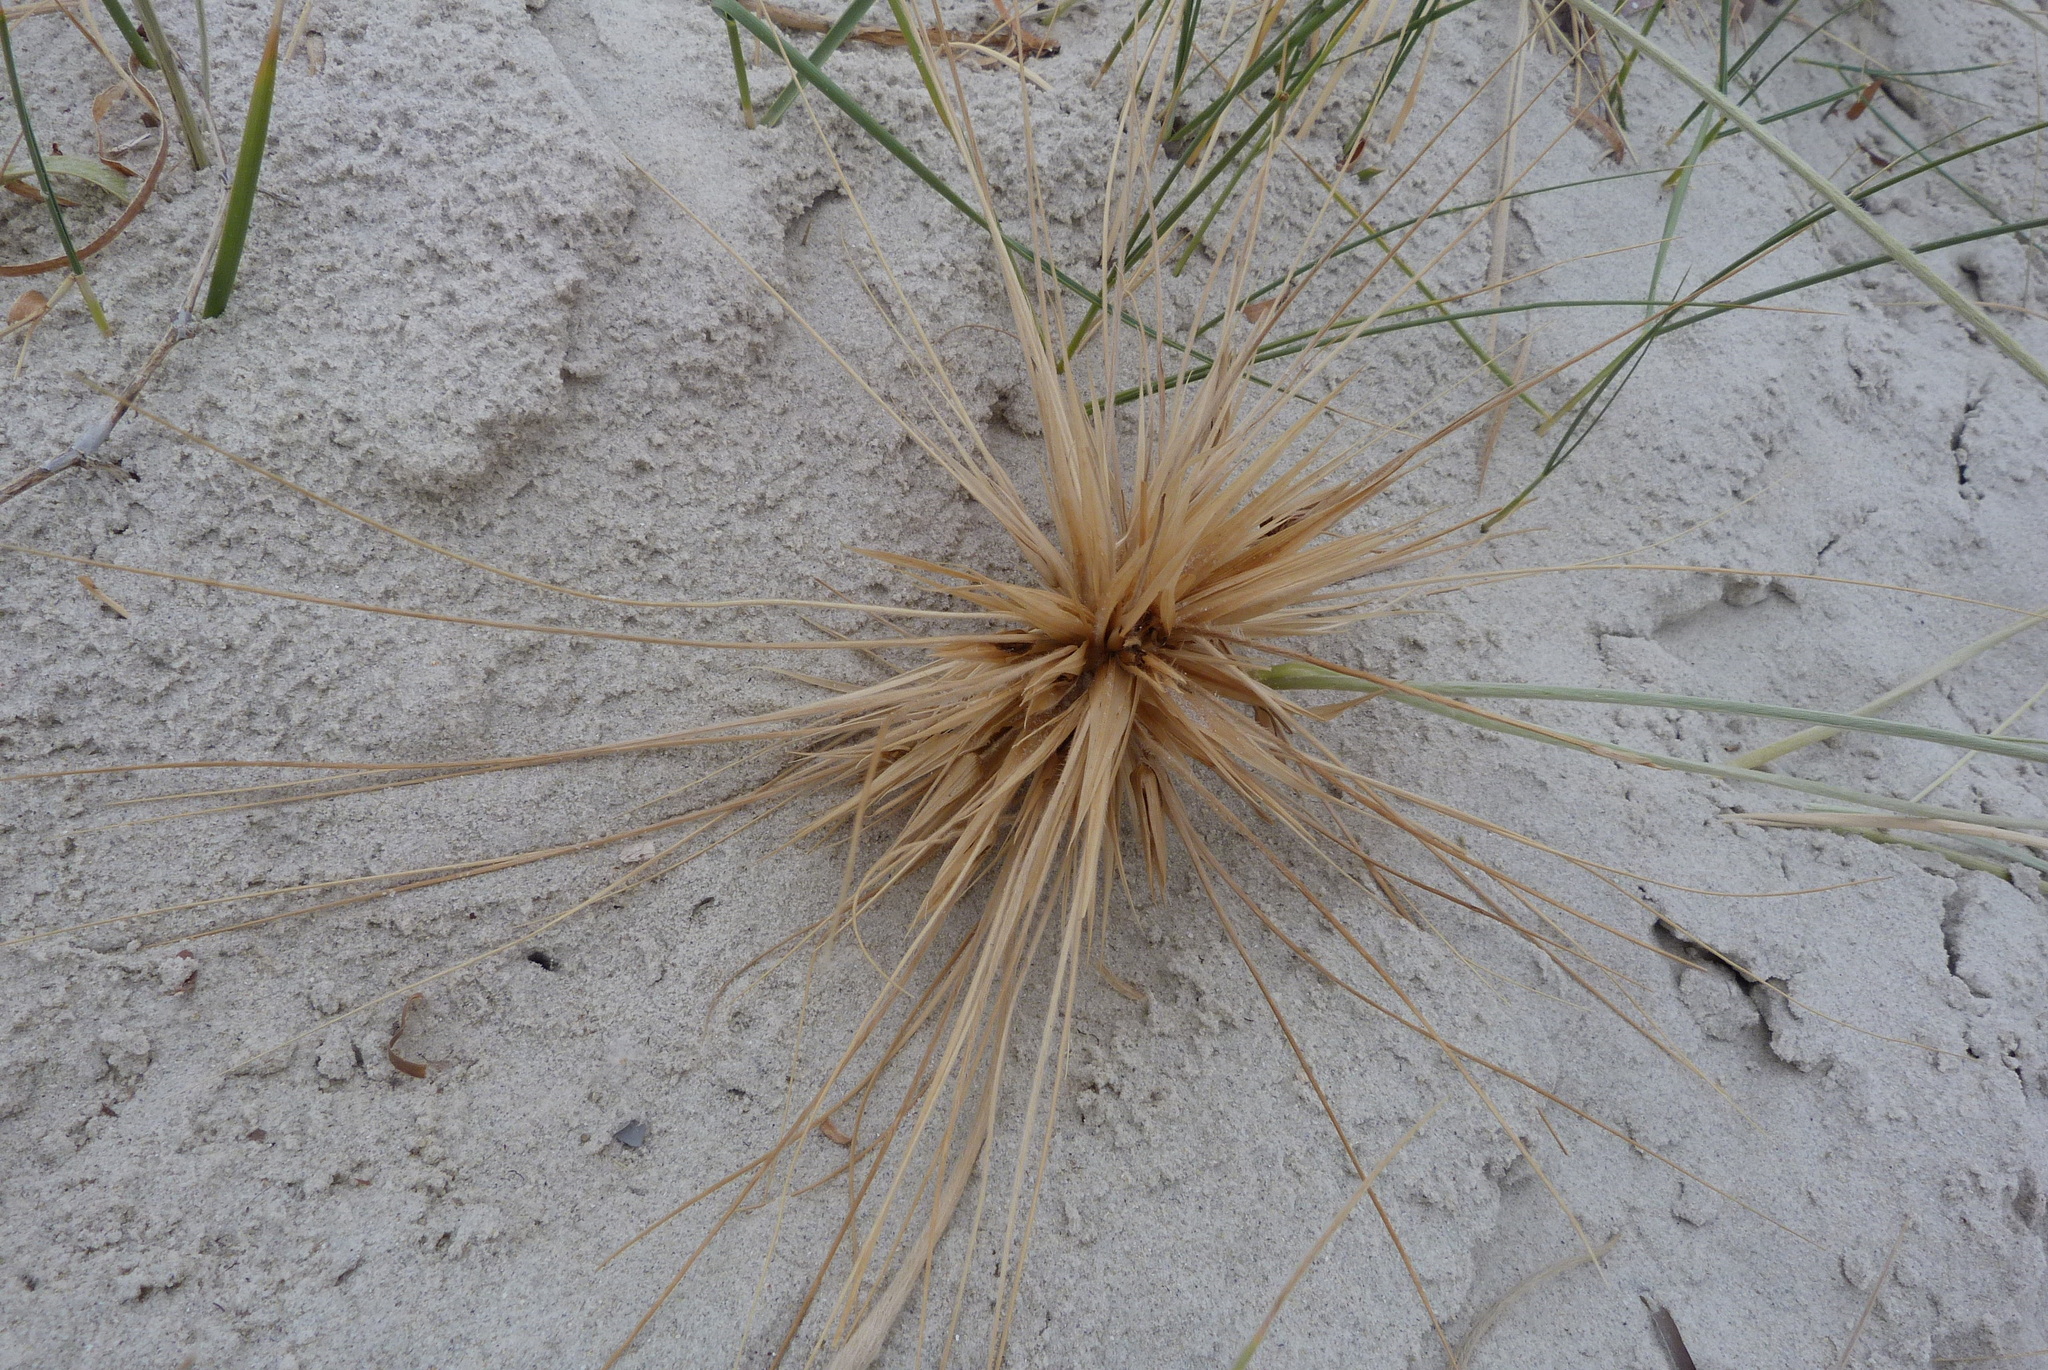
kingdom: Plantae
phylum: Tracheophyta
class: Liliopsida
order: Poales
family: Poaceae
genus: Spinifex
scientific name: Spinifex hirsutus
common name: Hairy spinifex
